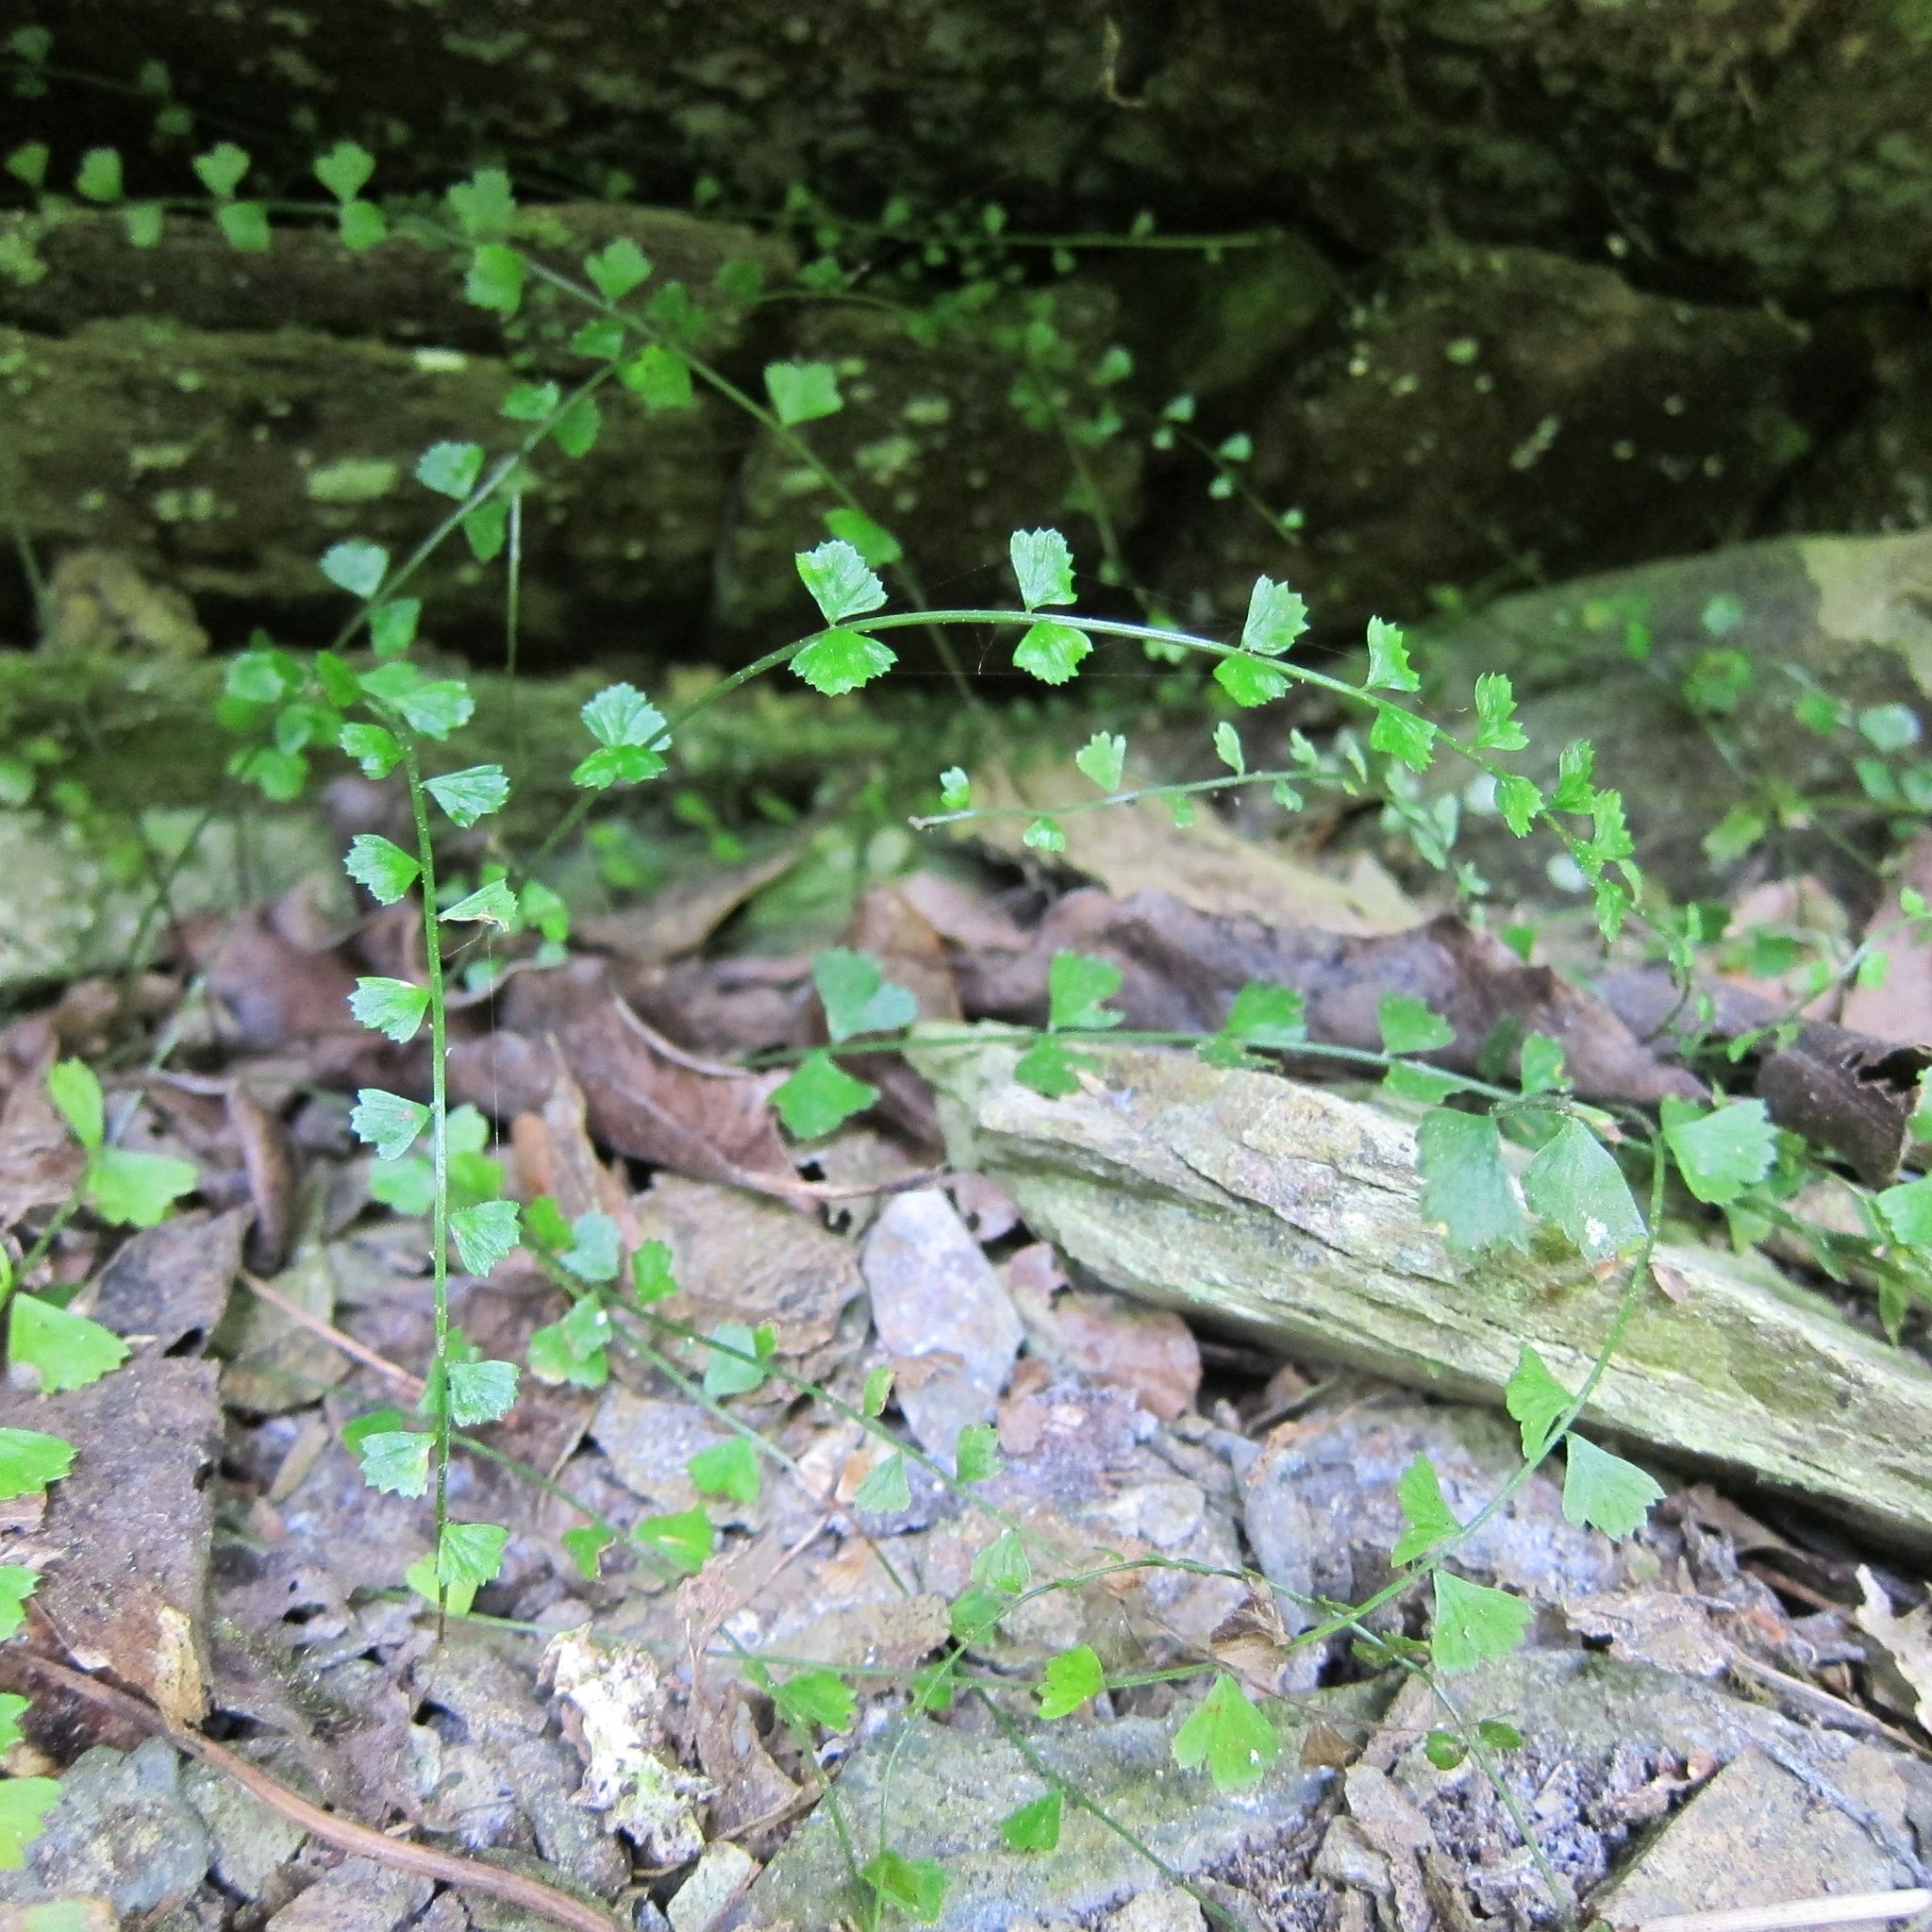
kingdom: Plantae
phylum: Tracheophyta
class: Polypodiopsida
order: Polypodiales
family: Aspleniaceae
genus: Asplenium
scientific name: Asplenium flabellifolium
